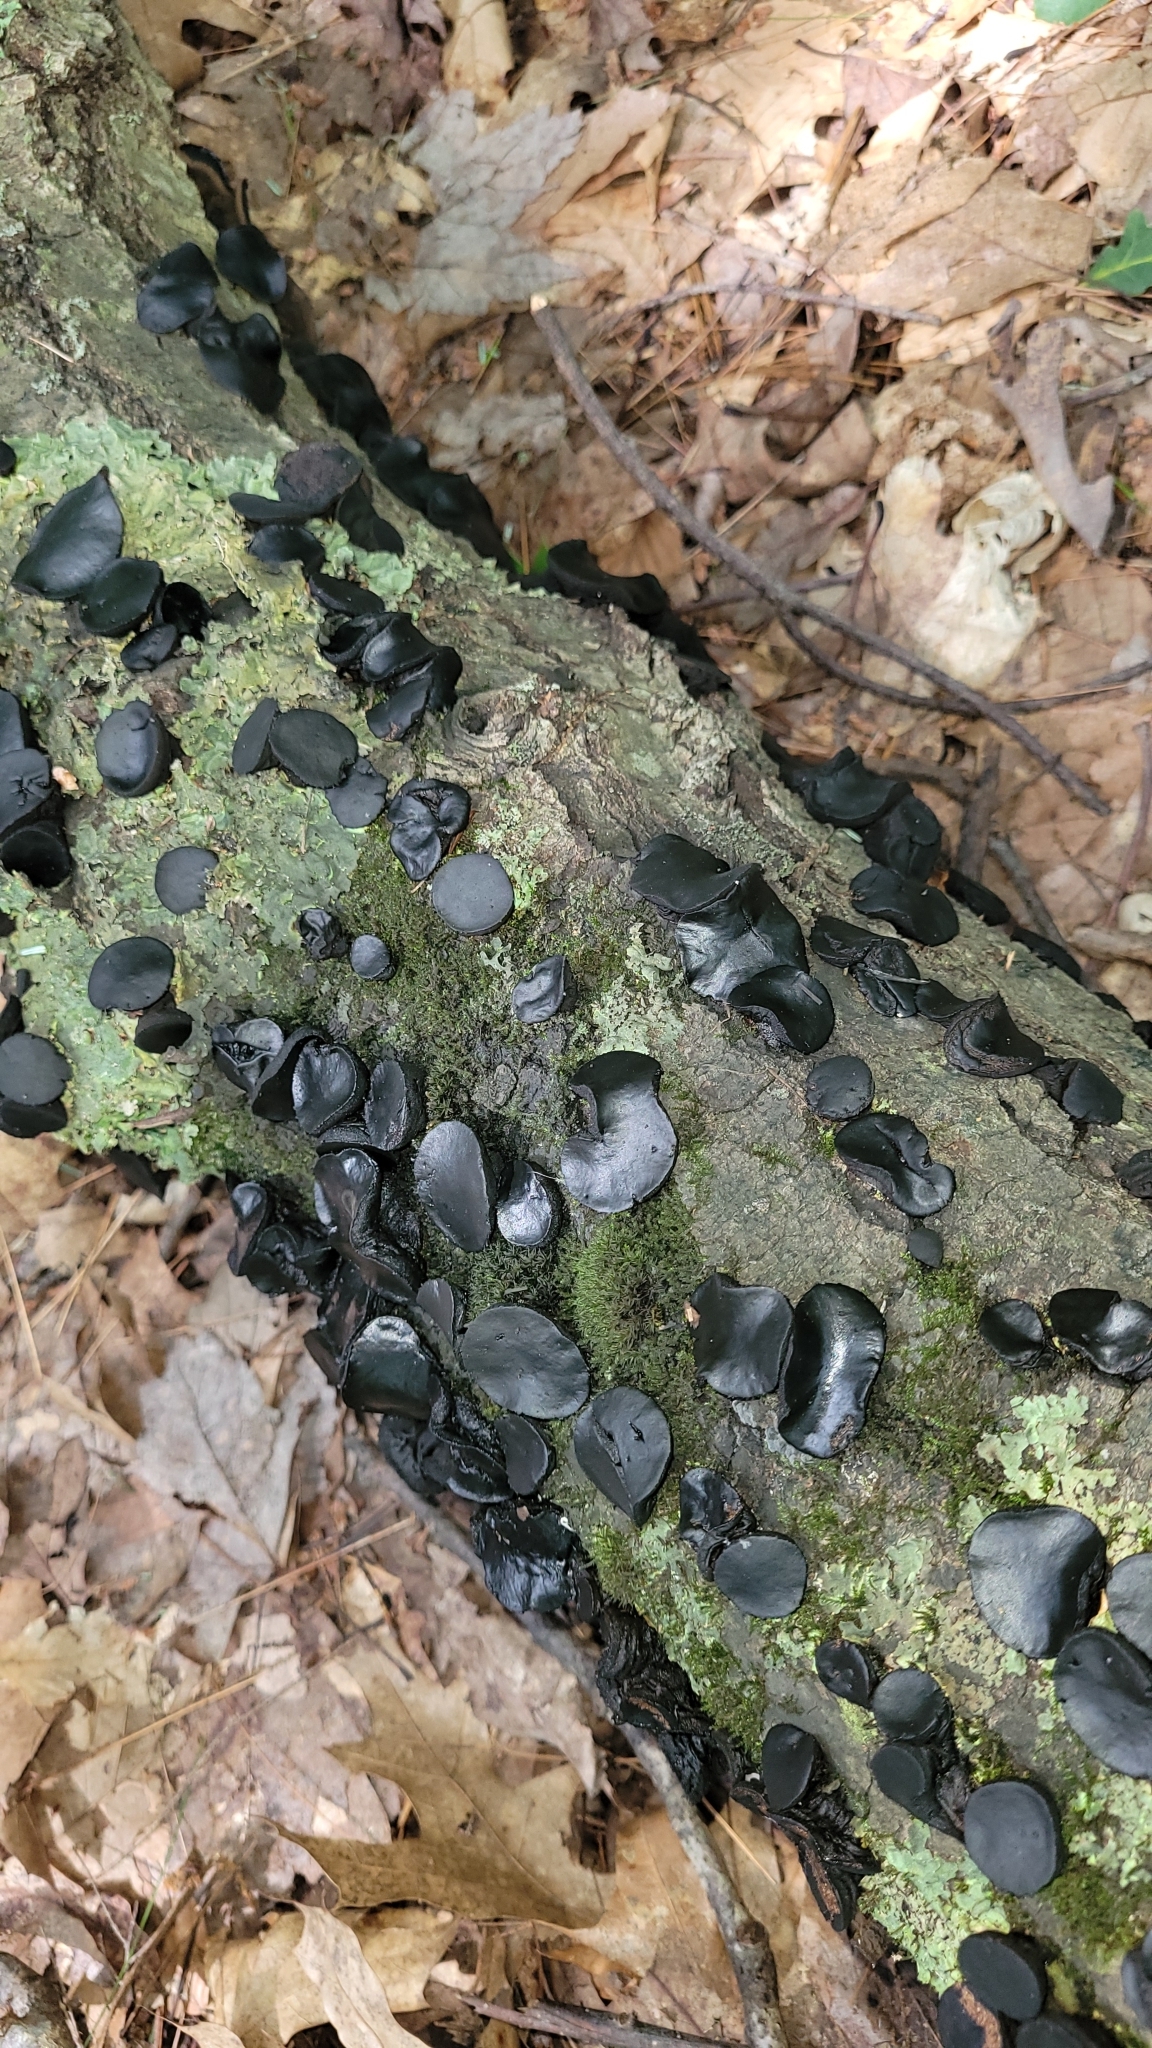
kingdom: Fungi
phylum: Ascomycota
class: Leotiomycetes
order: Phacidiales
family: Phacidiaceae
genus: Bulgaria
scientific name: Bulgaria inquinans
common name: Black bulgar
